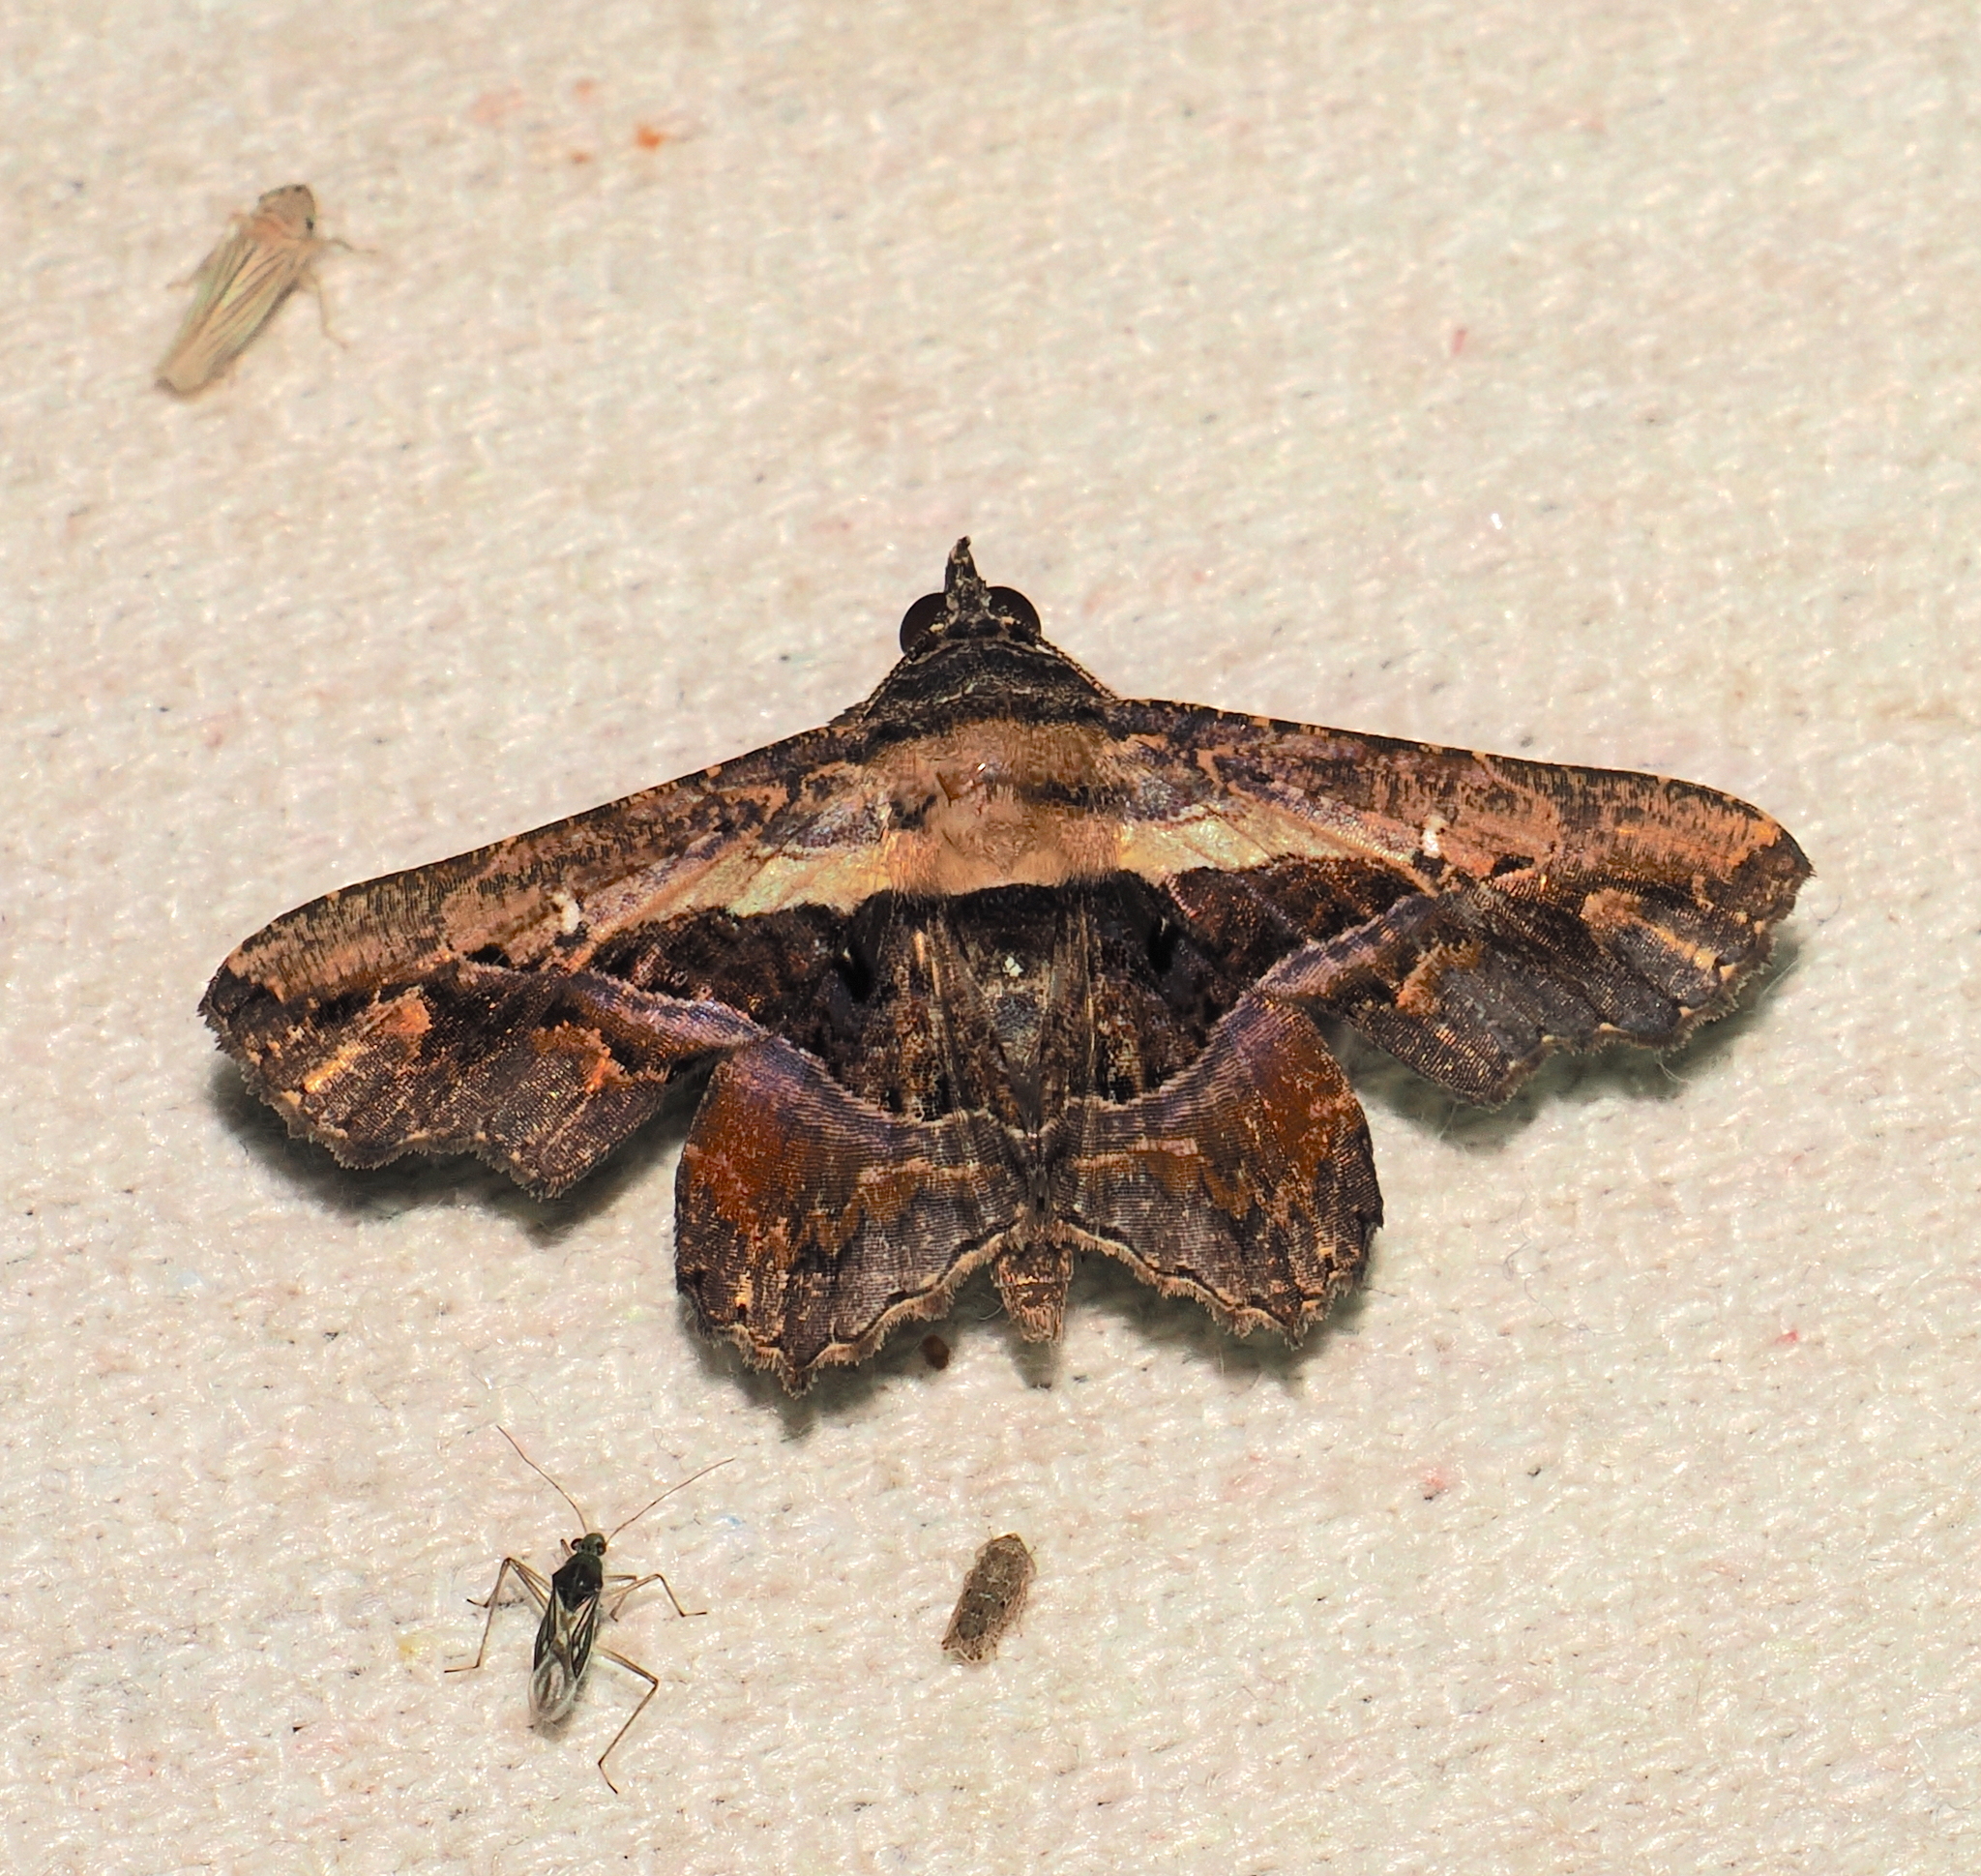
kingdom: Animalia
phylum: Arthropoda
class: Insecta
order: Lepidoptera
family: Erebidae
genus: Helia
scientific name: Helia subjugua
